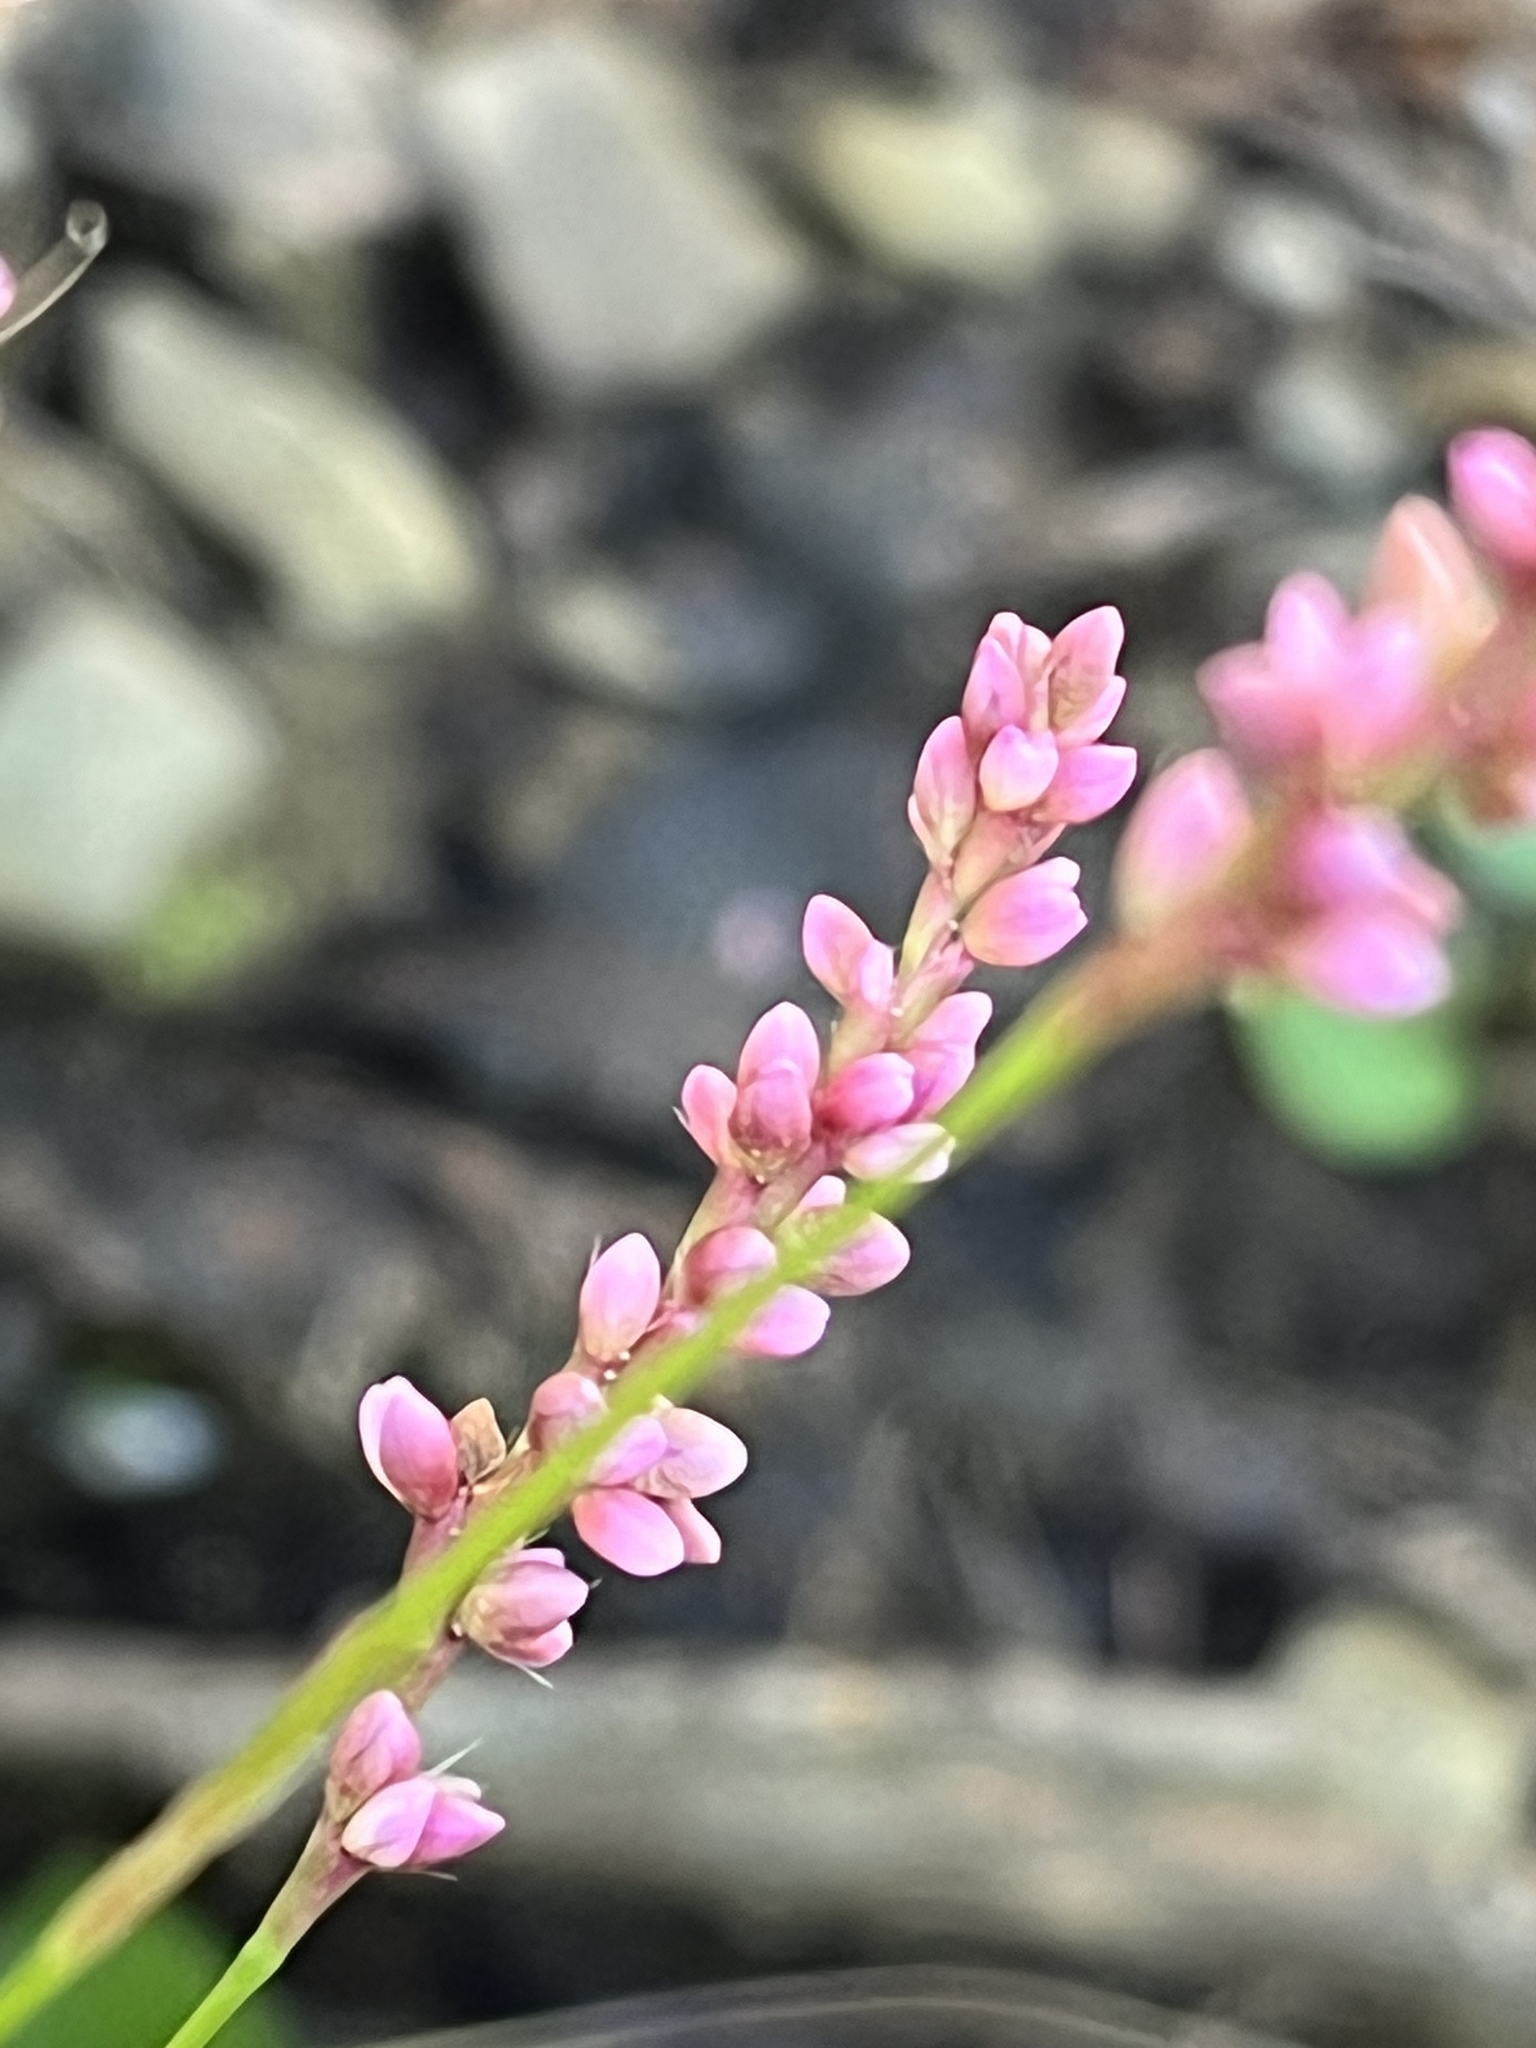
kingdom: Plantae
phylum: Tracheophyta
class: Magnoliopsida
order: Caryophyllales
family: Polygonaceae
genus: Persicaria
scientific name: Persicaria longiseta
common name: Bristly lady's-thumb
